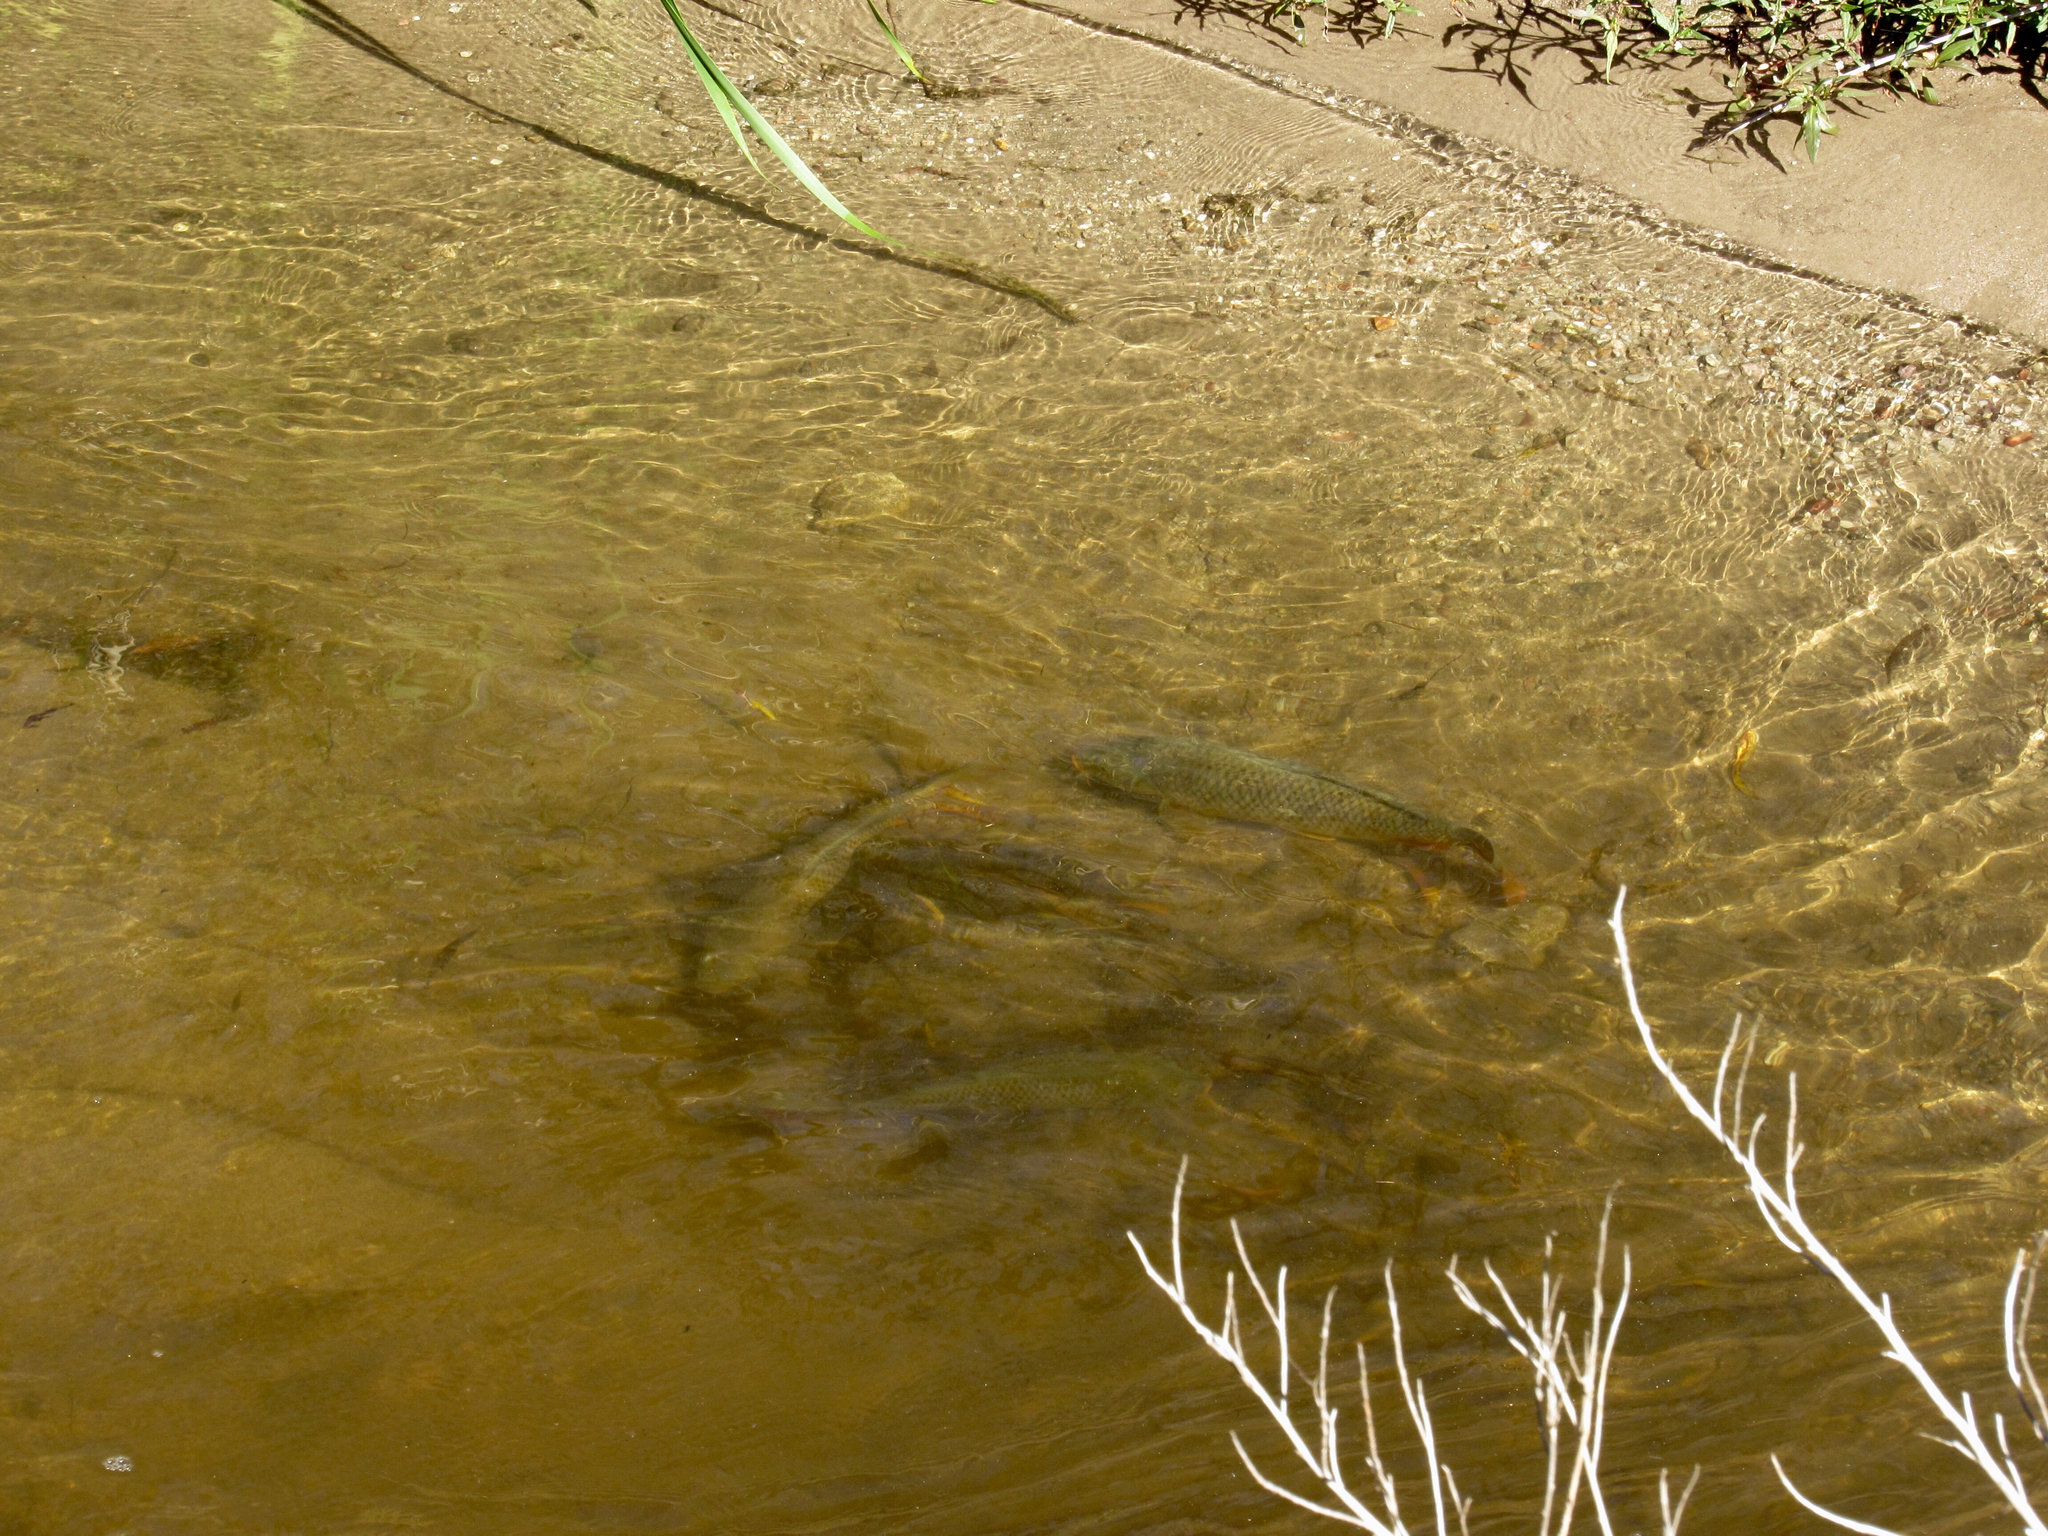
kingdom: Animalia
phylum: Chordata
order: Cypriniformes
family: Cyprinidae
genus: Cyprinus
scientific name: Cyprinus carpio
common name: Common carp
